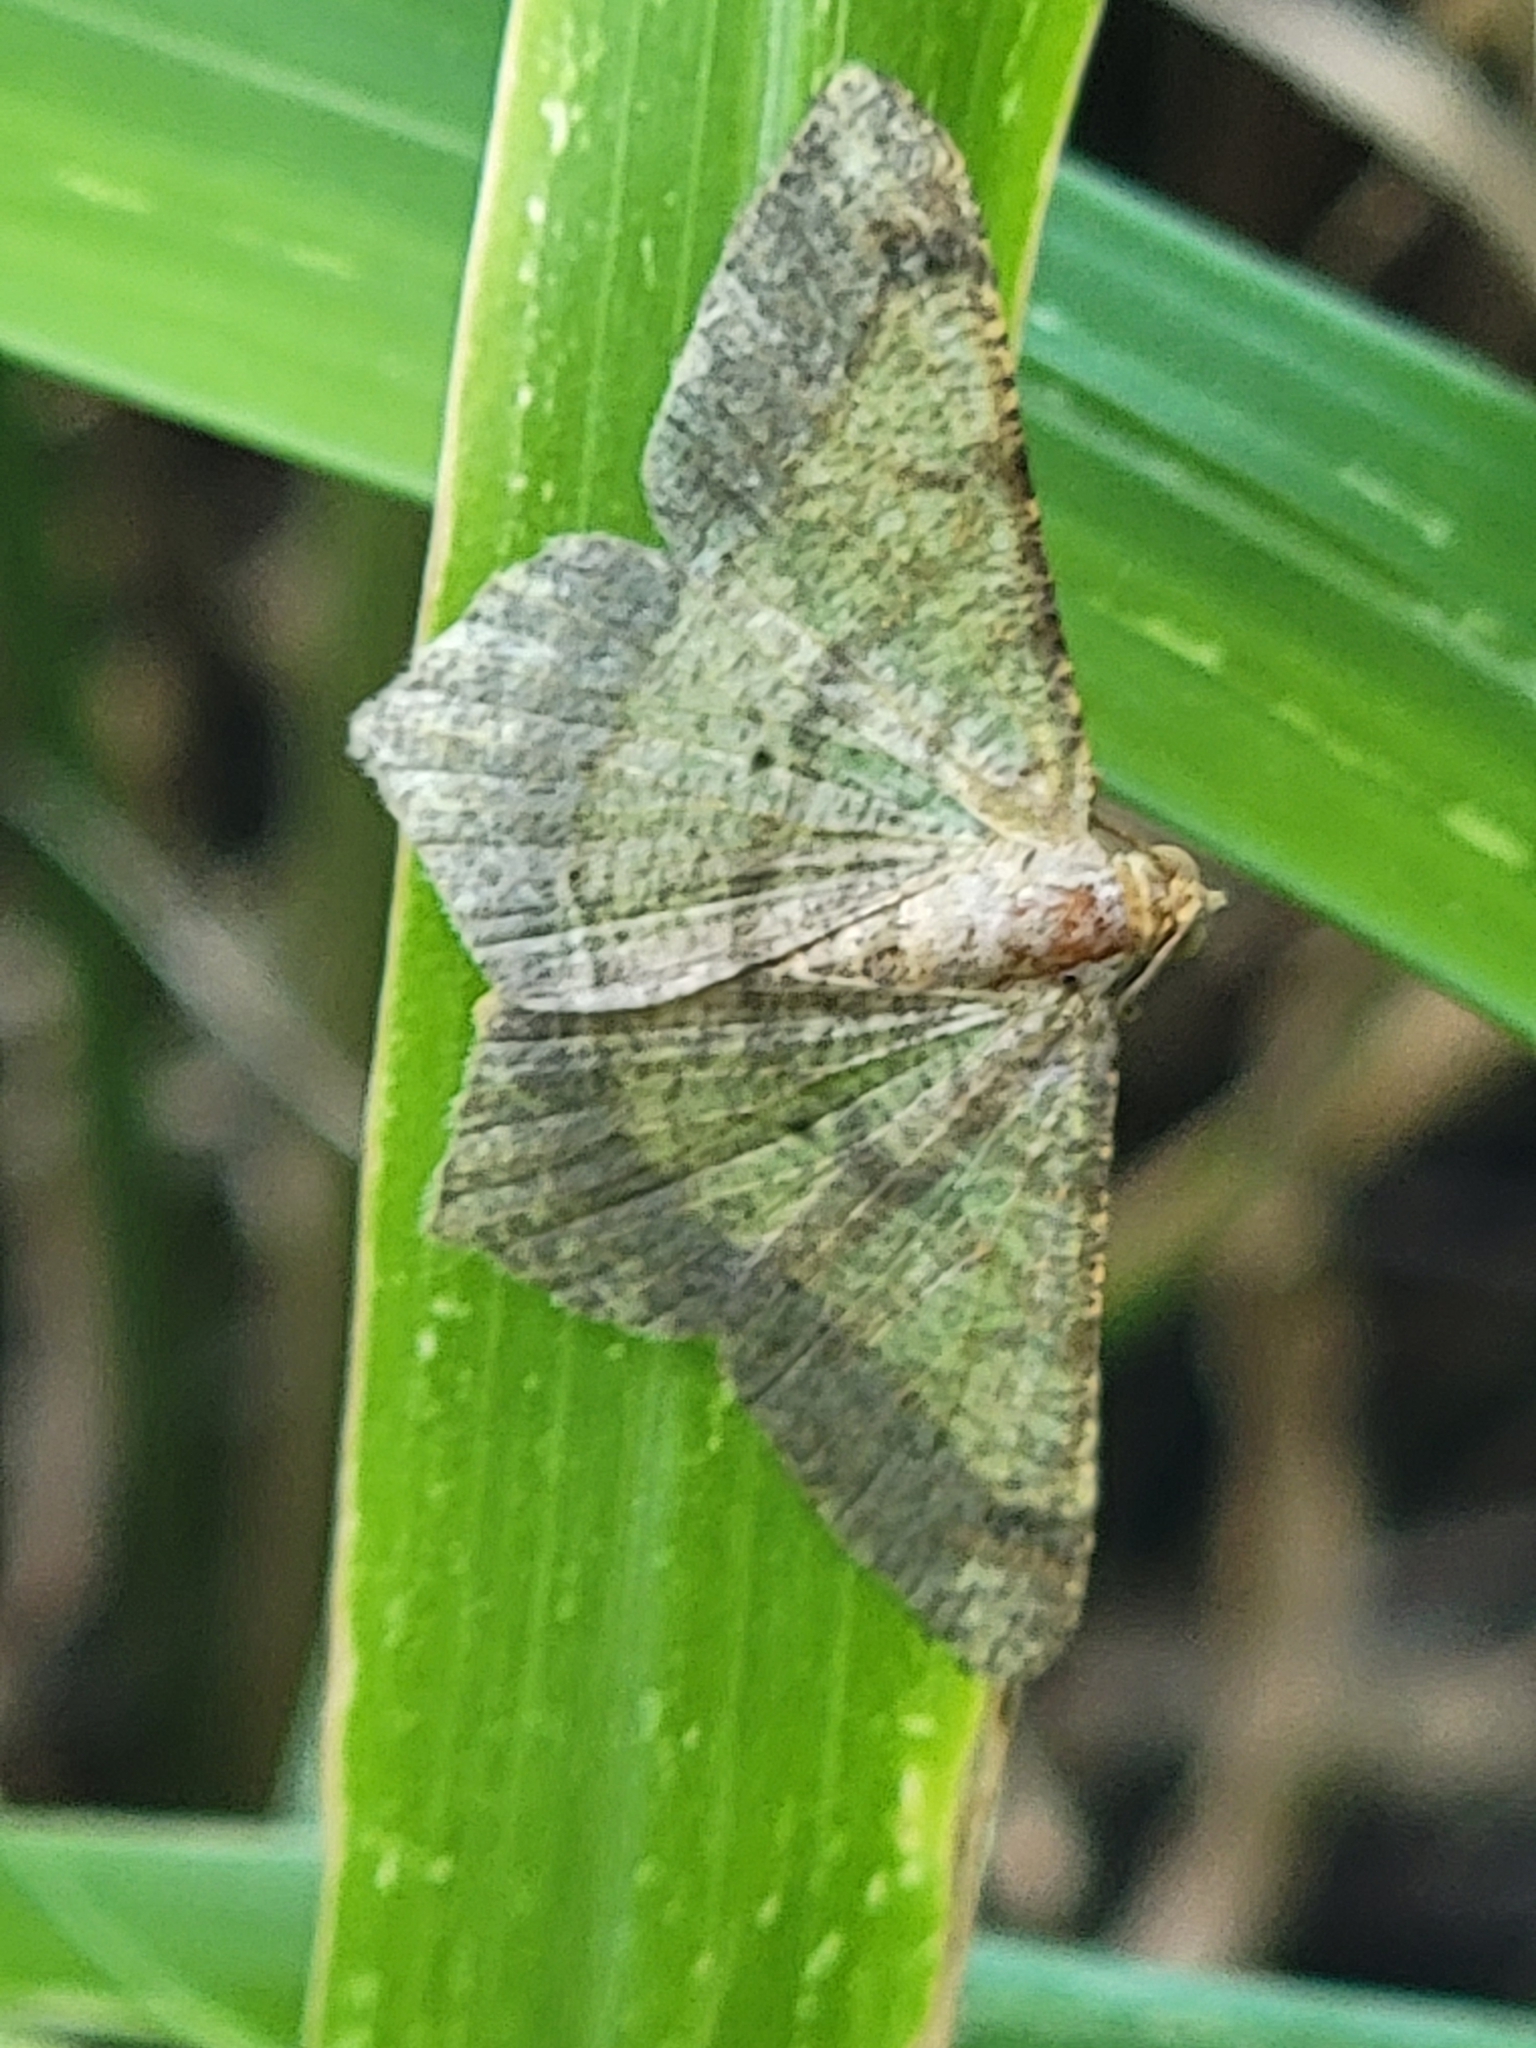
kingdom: Animalia
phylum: Arthropoda
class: Insecta
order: Lepidoptera
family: Geometridae
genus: Macaria
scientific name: Macaria abydata
